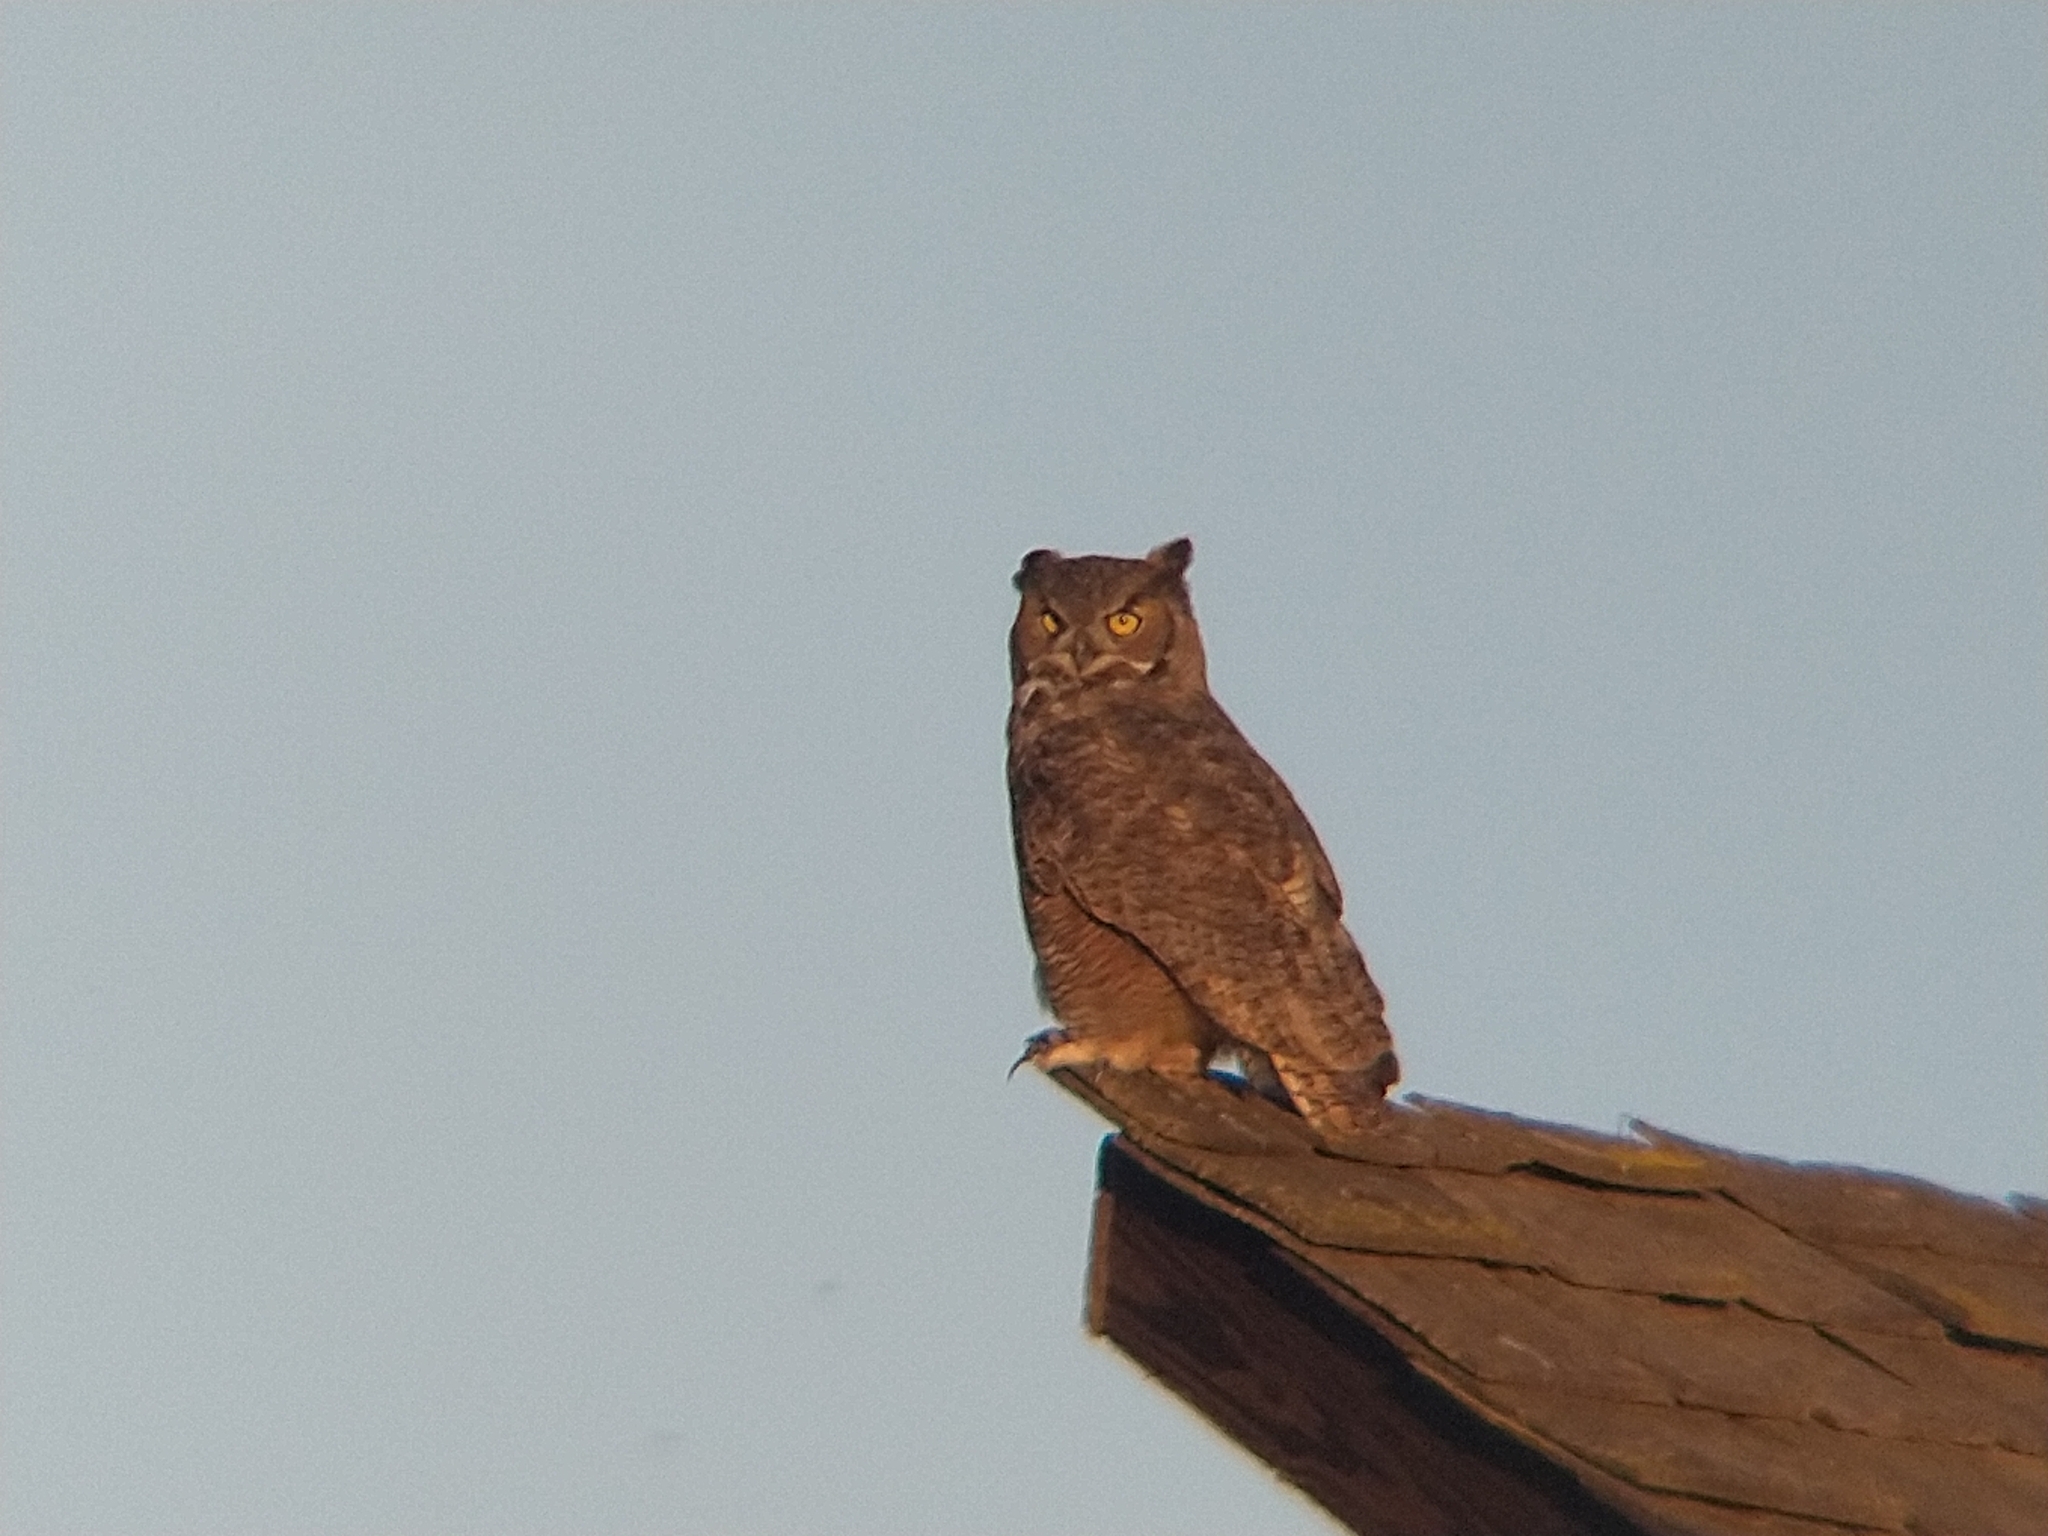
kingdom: Animalia
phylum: Chordata
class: Aves
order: Strigiformes
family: Strigidae
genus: Bubo
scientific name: Bubo virginianus
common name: Great horned owl
